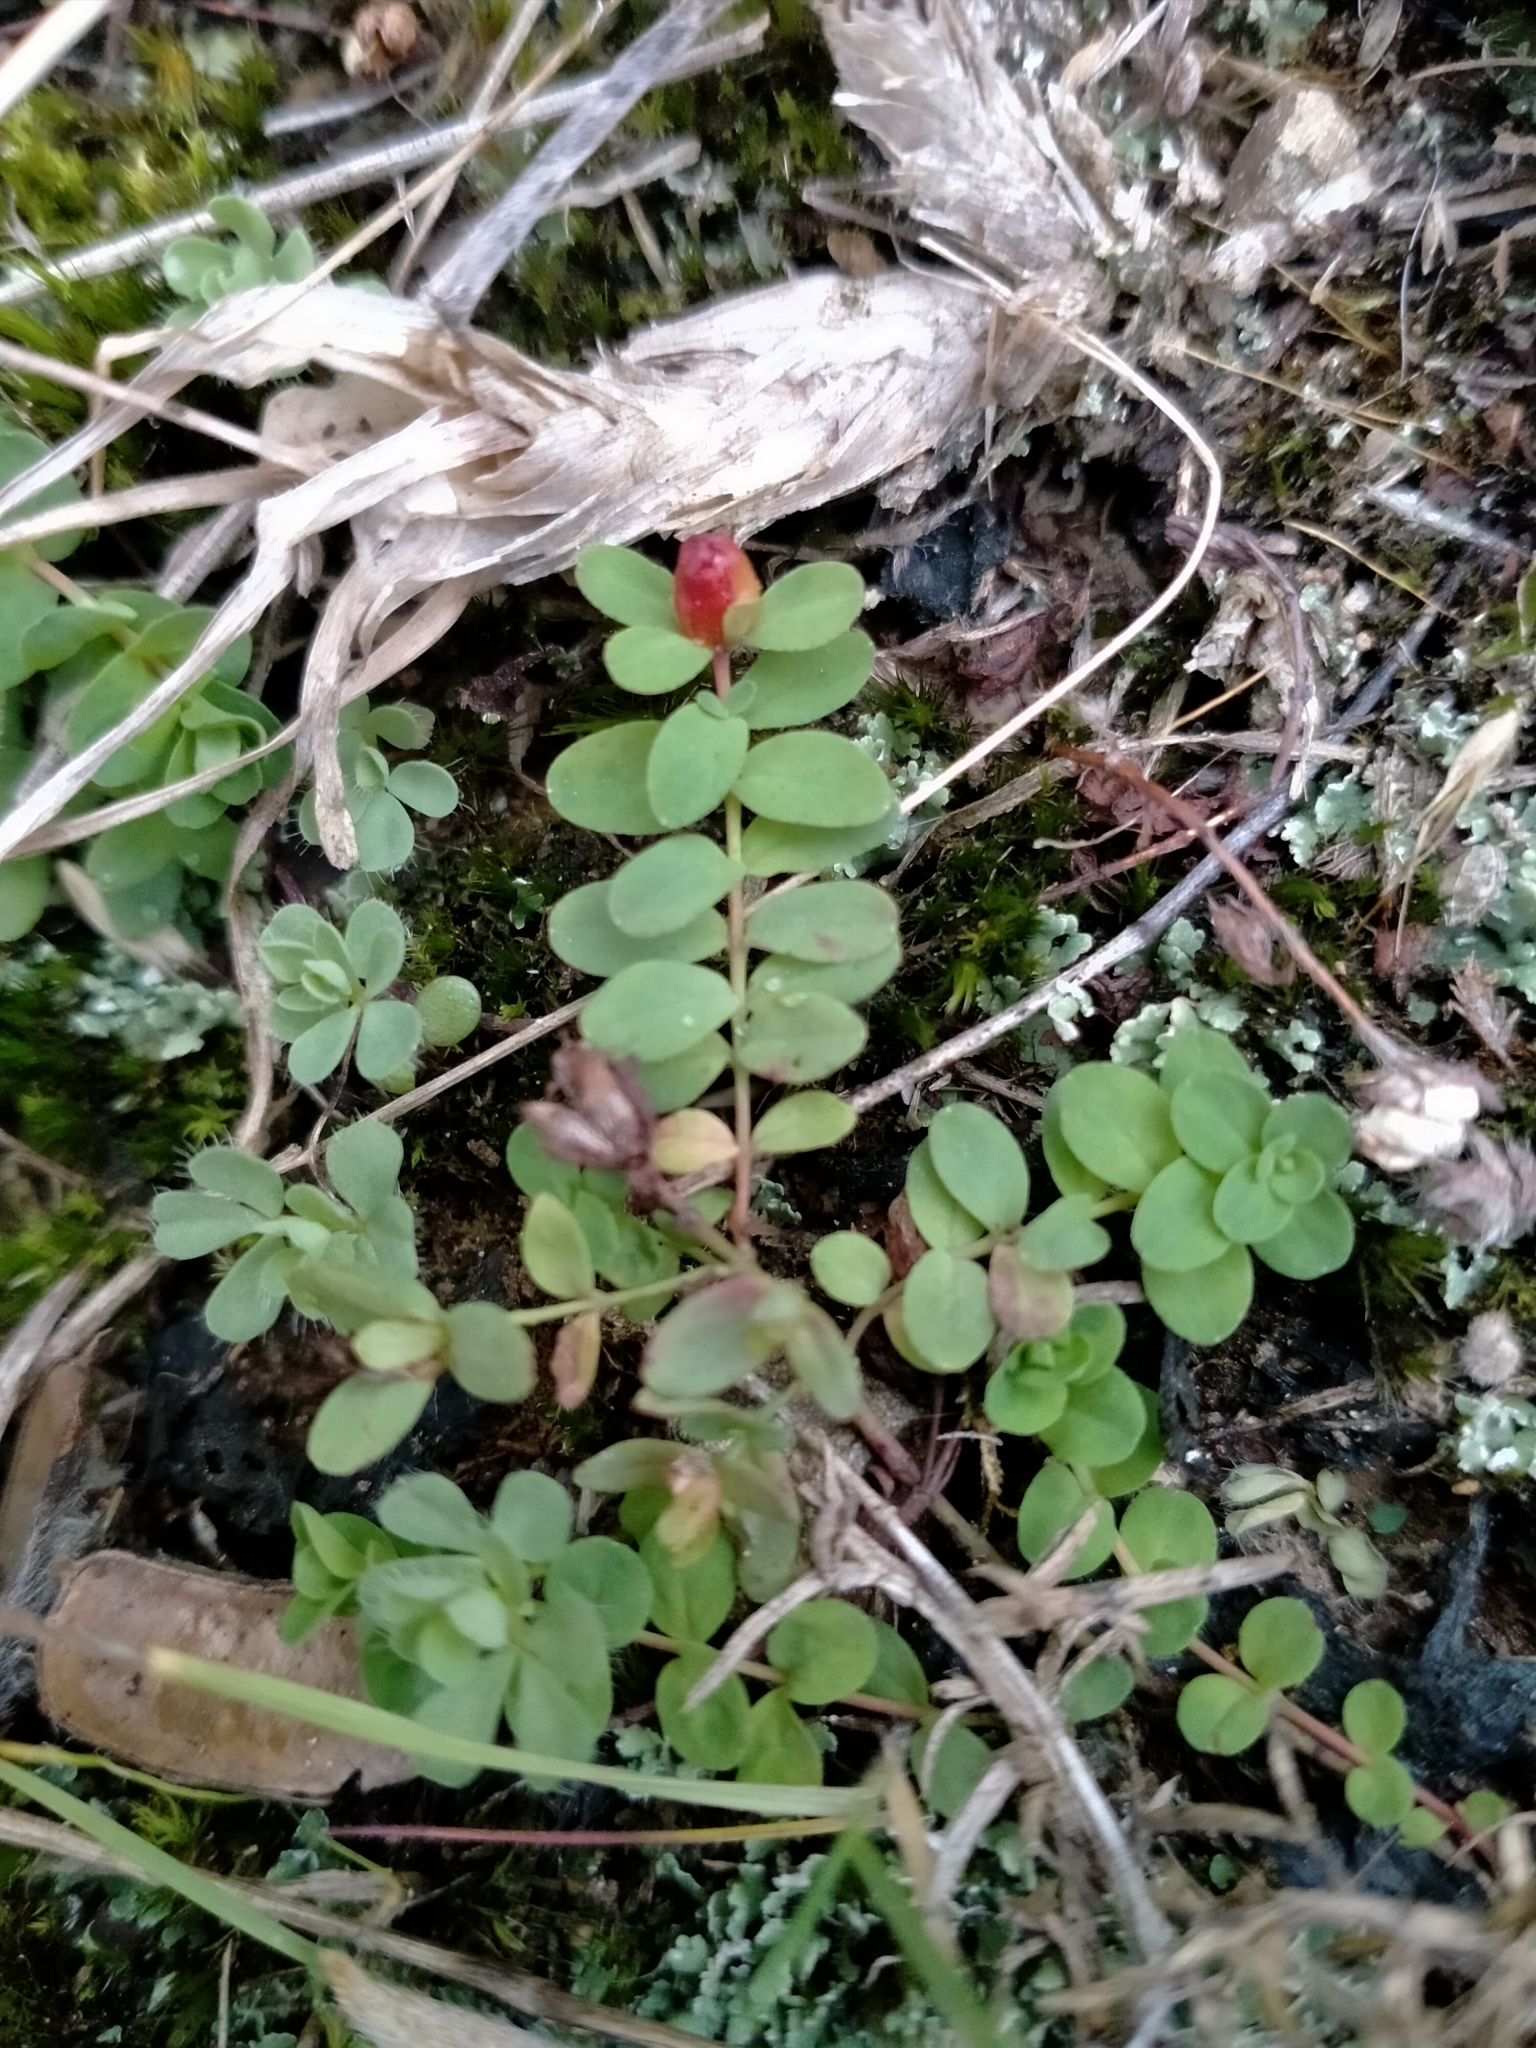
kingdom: Plantae
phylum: Tracheophyta
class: Magnoliopsida
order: Malpighiales
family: Hypericaceae
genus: Hypericum
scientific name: Hypericum humifusum
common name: Trailing st. john's-wort
